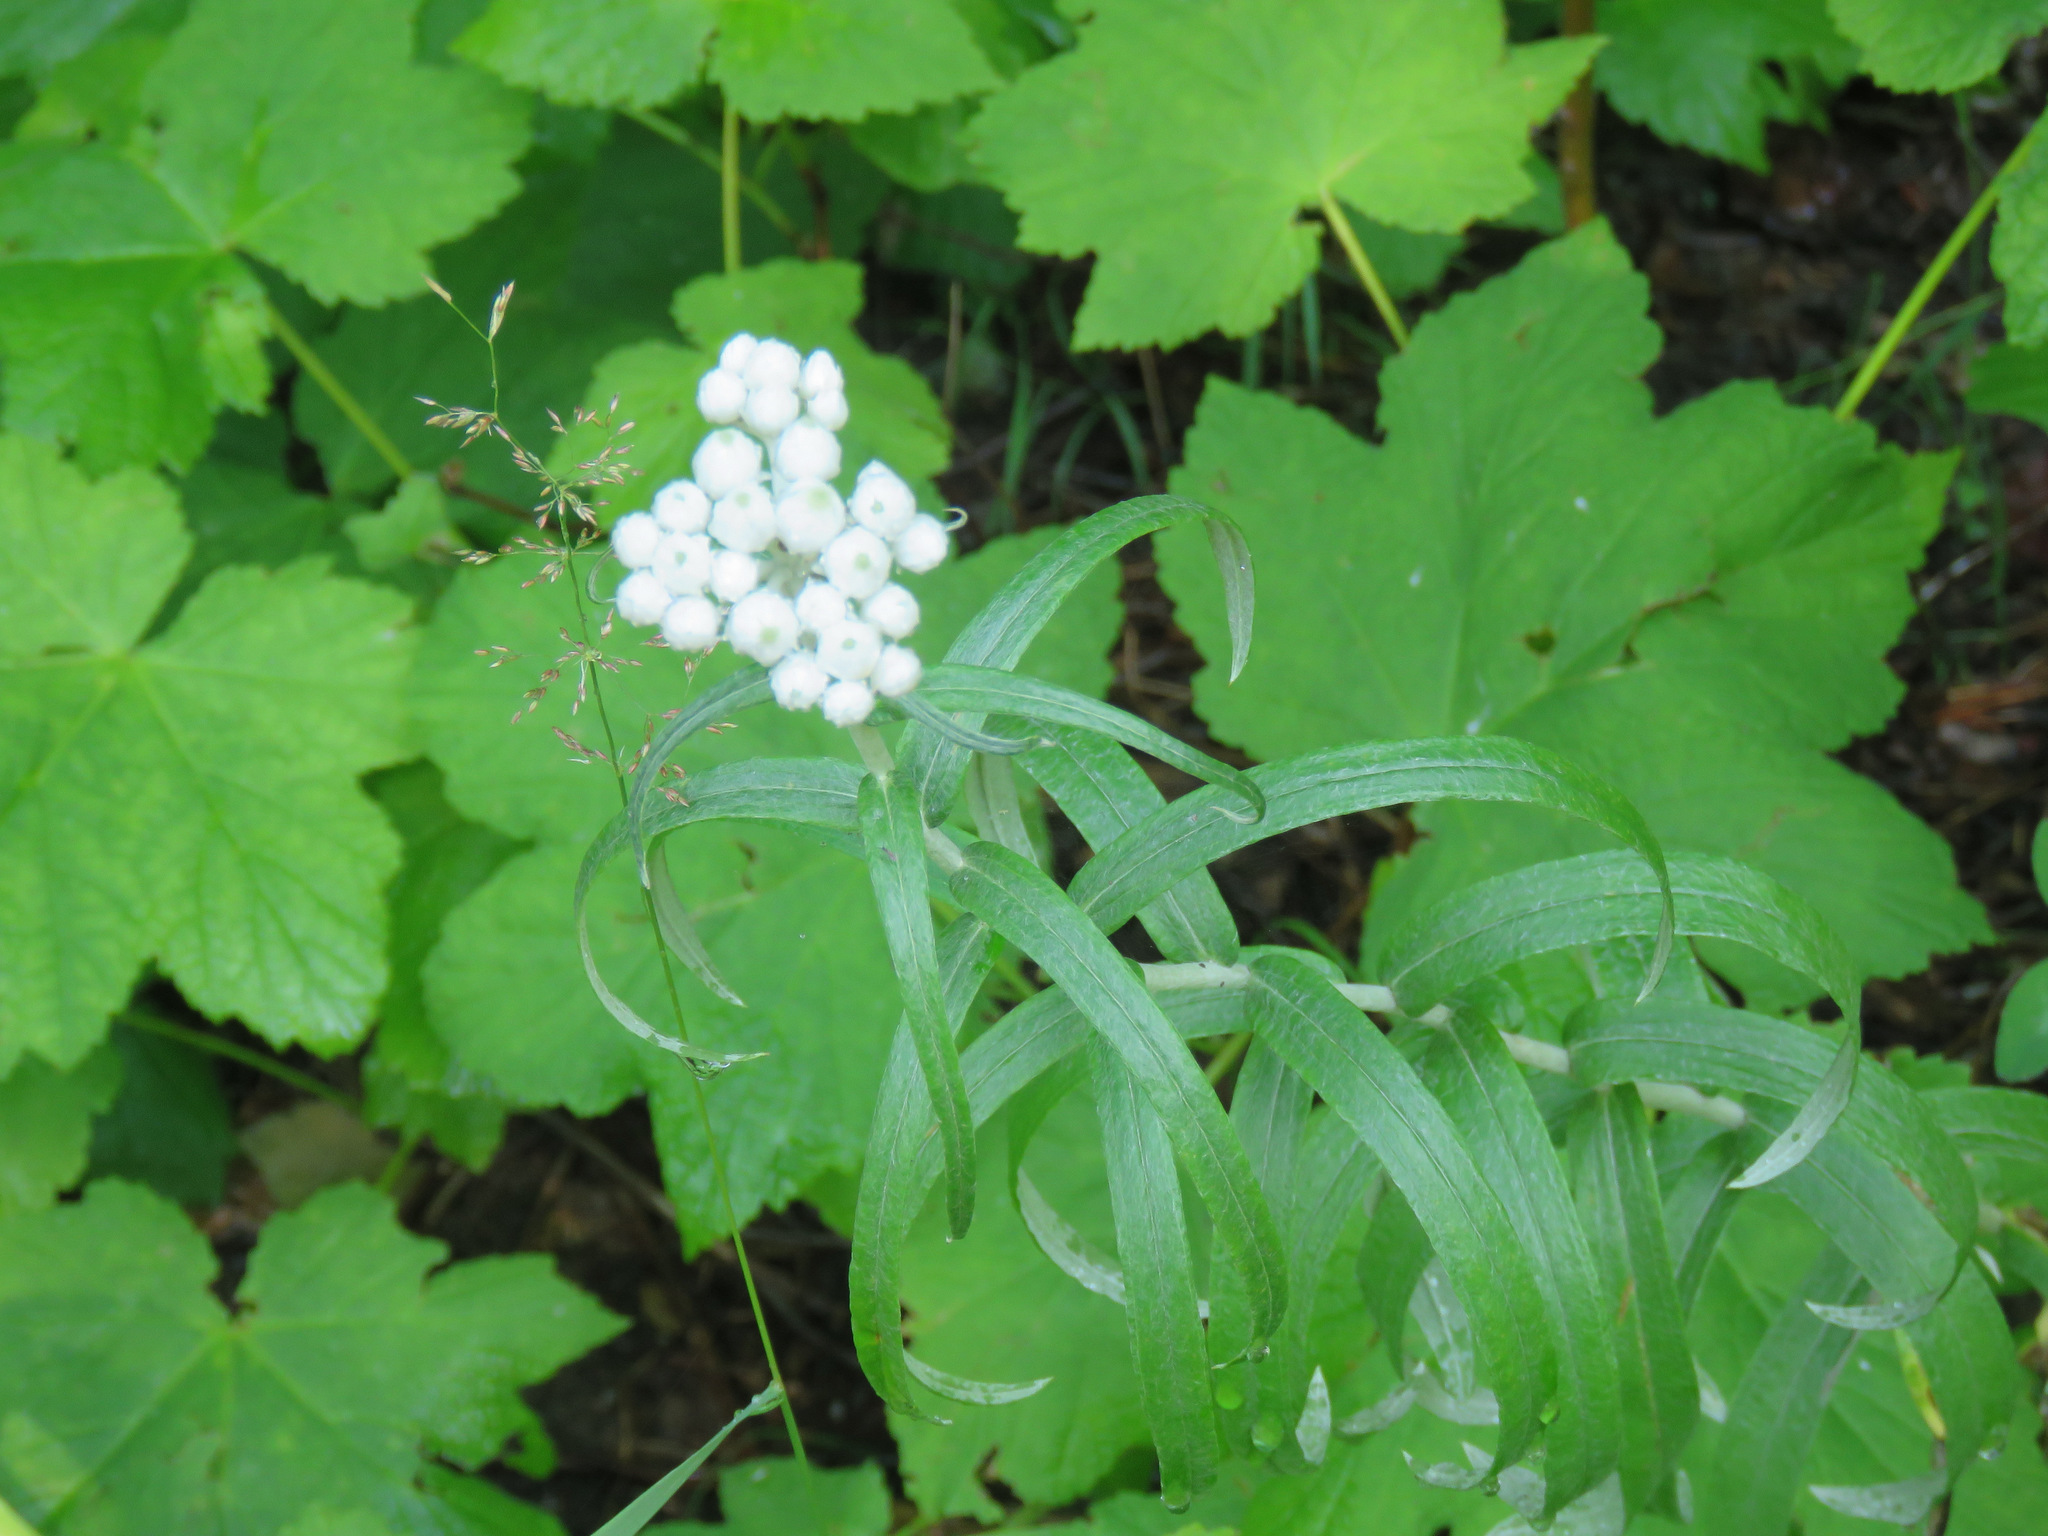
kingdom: Plantae
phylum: Tracheophyta
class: Magnoliopsida
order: Asterales
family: Asteraceae
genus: Anaphalis
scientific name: Anaphalis margaritacea
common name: Pearly everlasting
